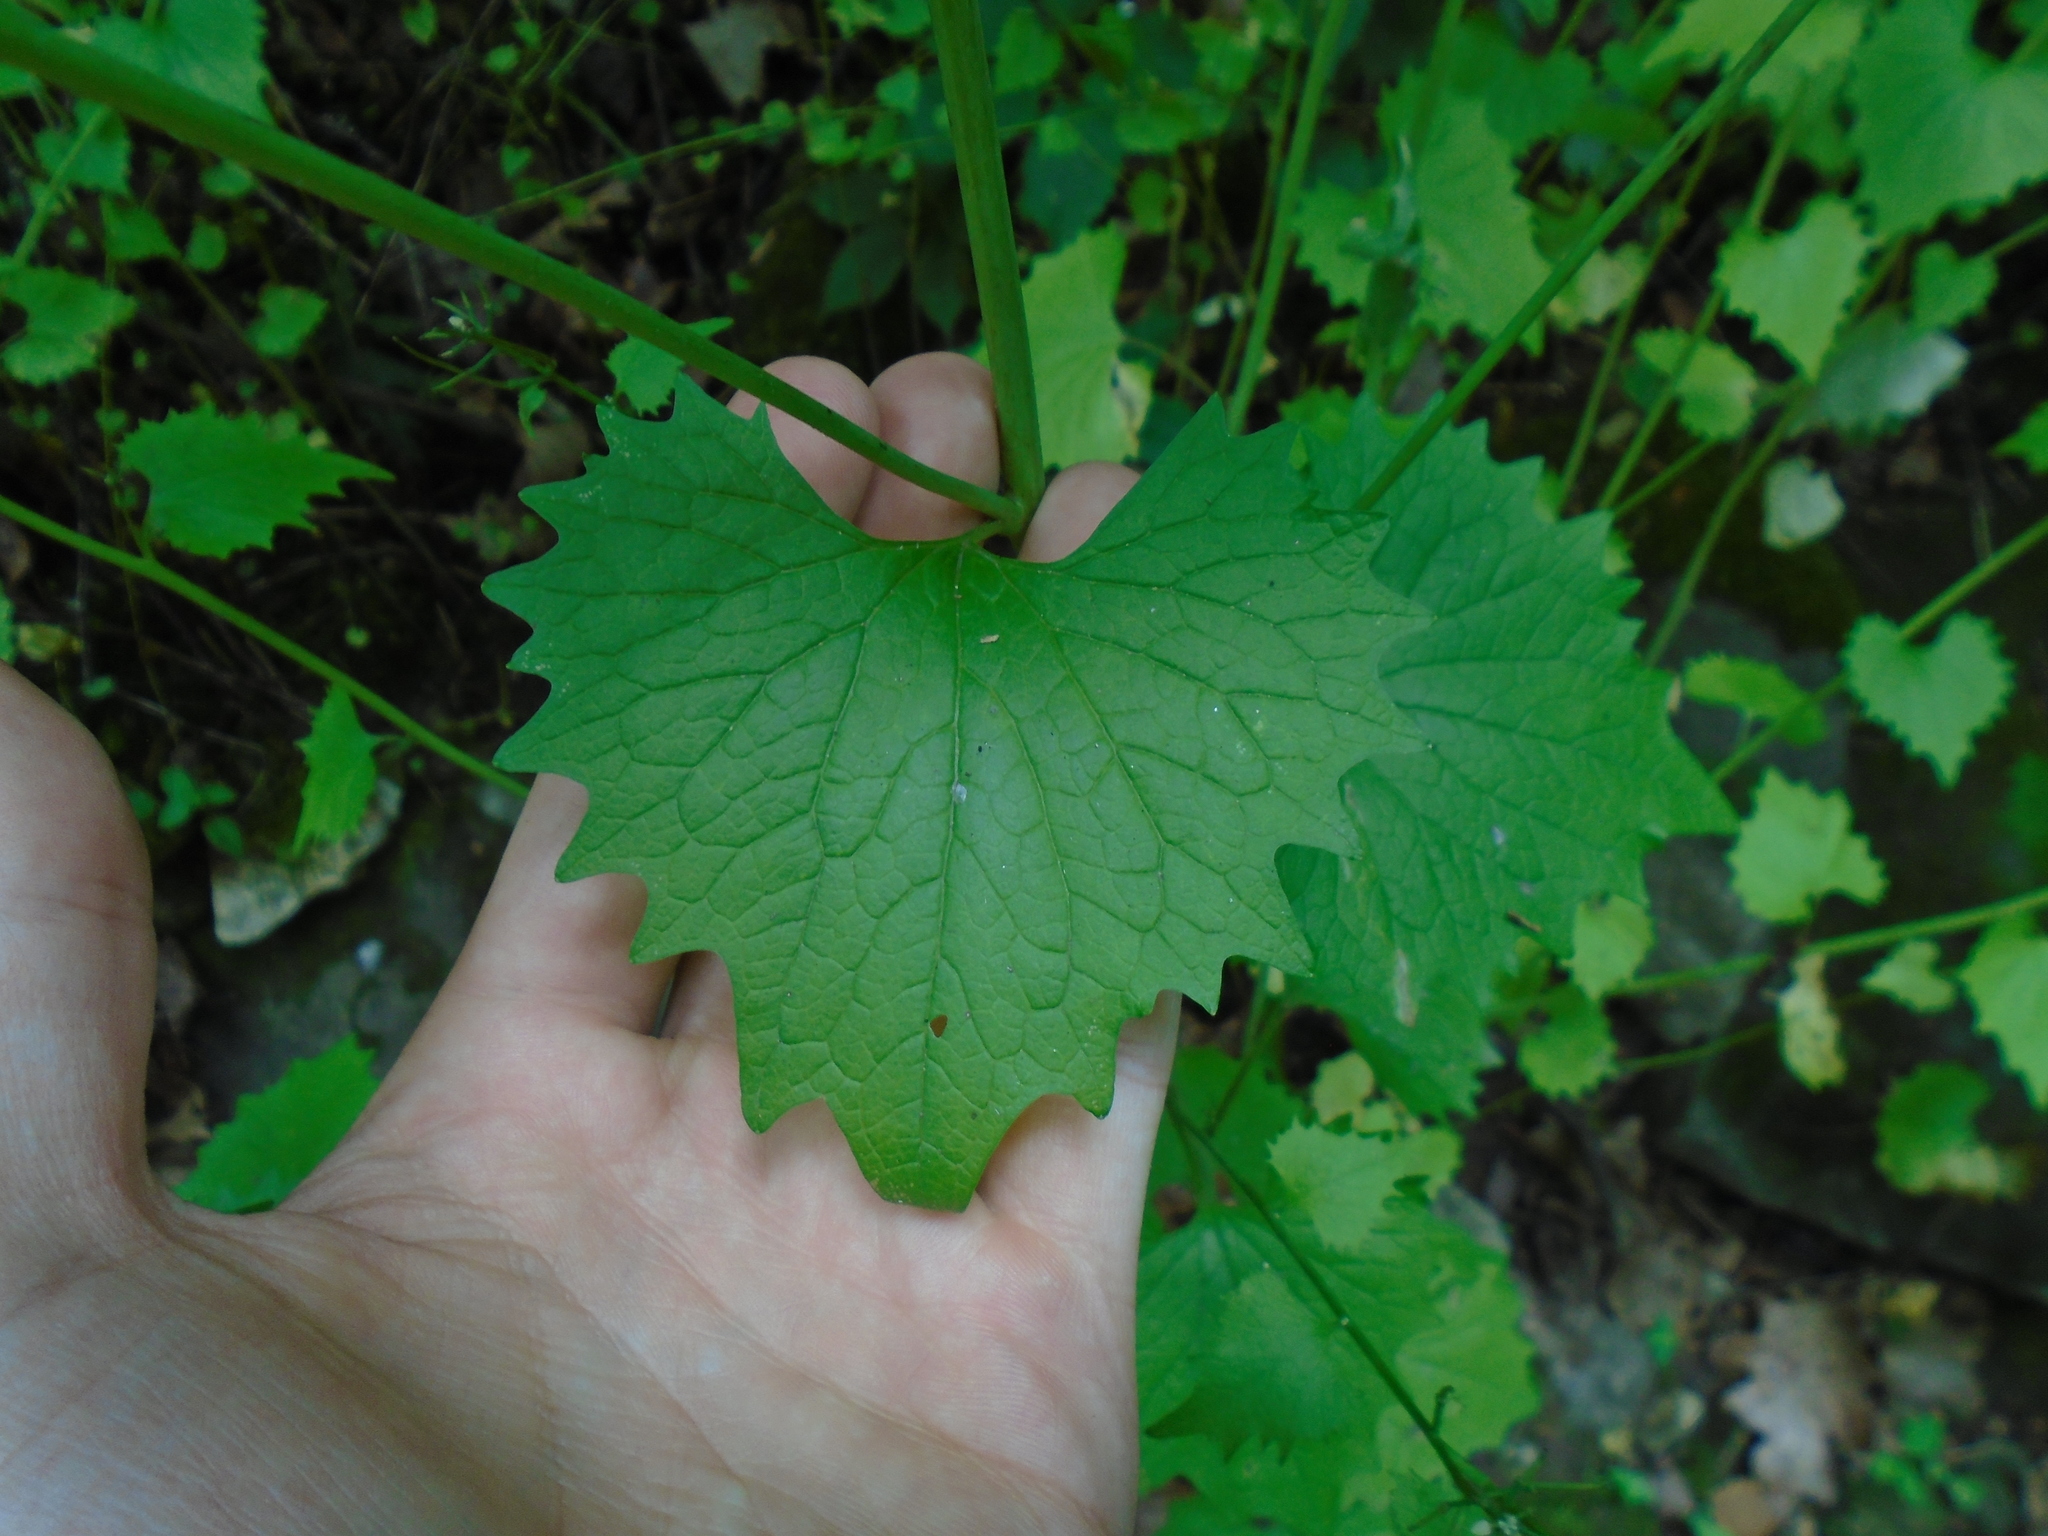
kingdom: Plantae
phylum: Tracheophyta
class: Magnoliopsida
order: Brassicales
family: Brassicaceae
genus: Alliaria
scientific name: Alliaria petiolata
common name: Garlic mustard
